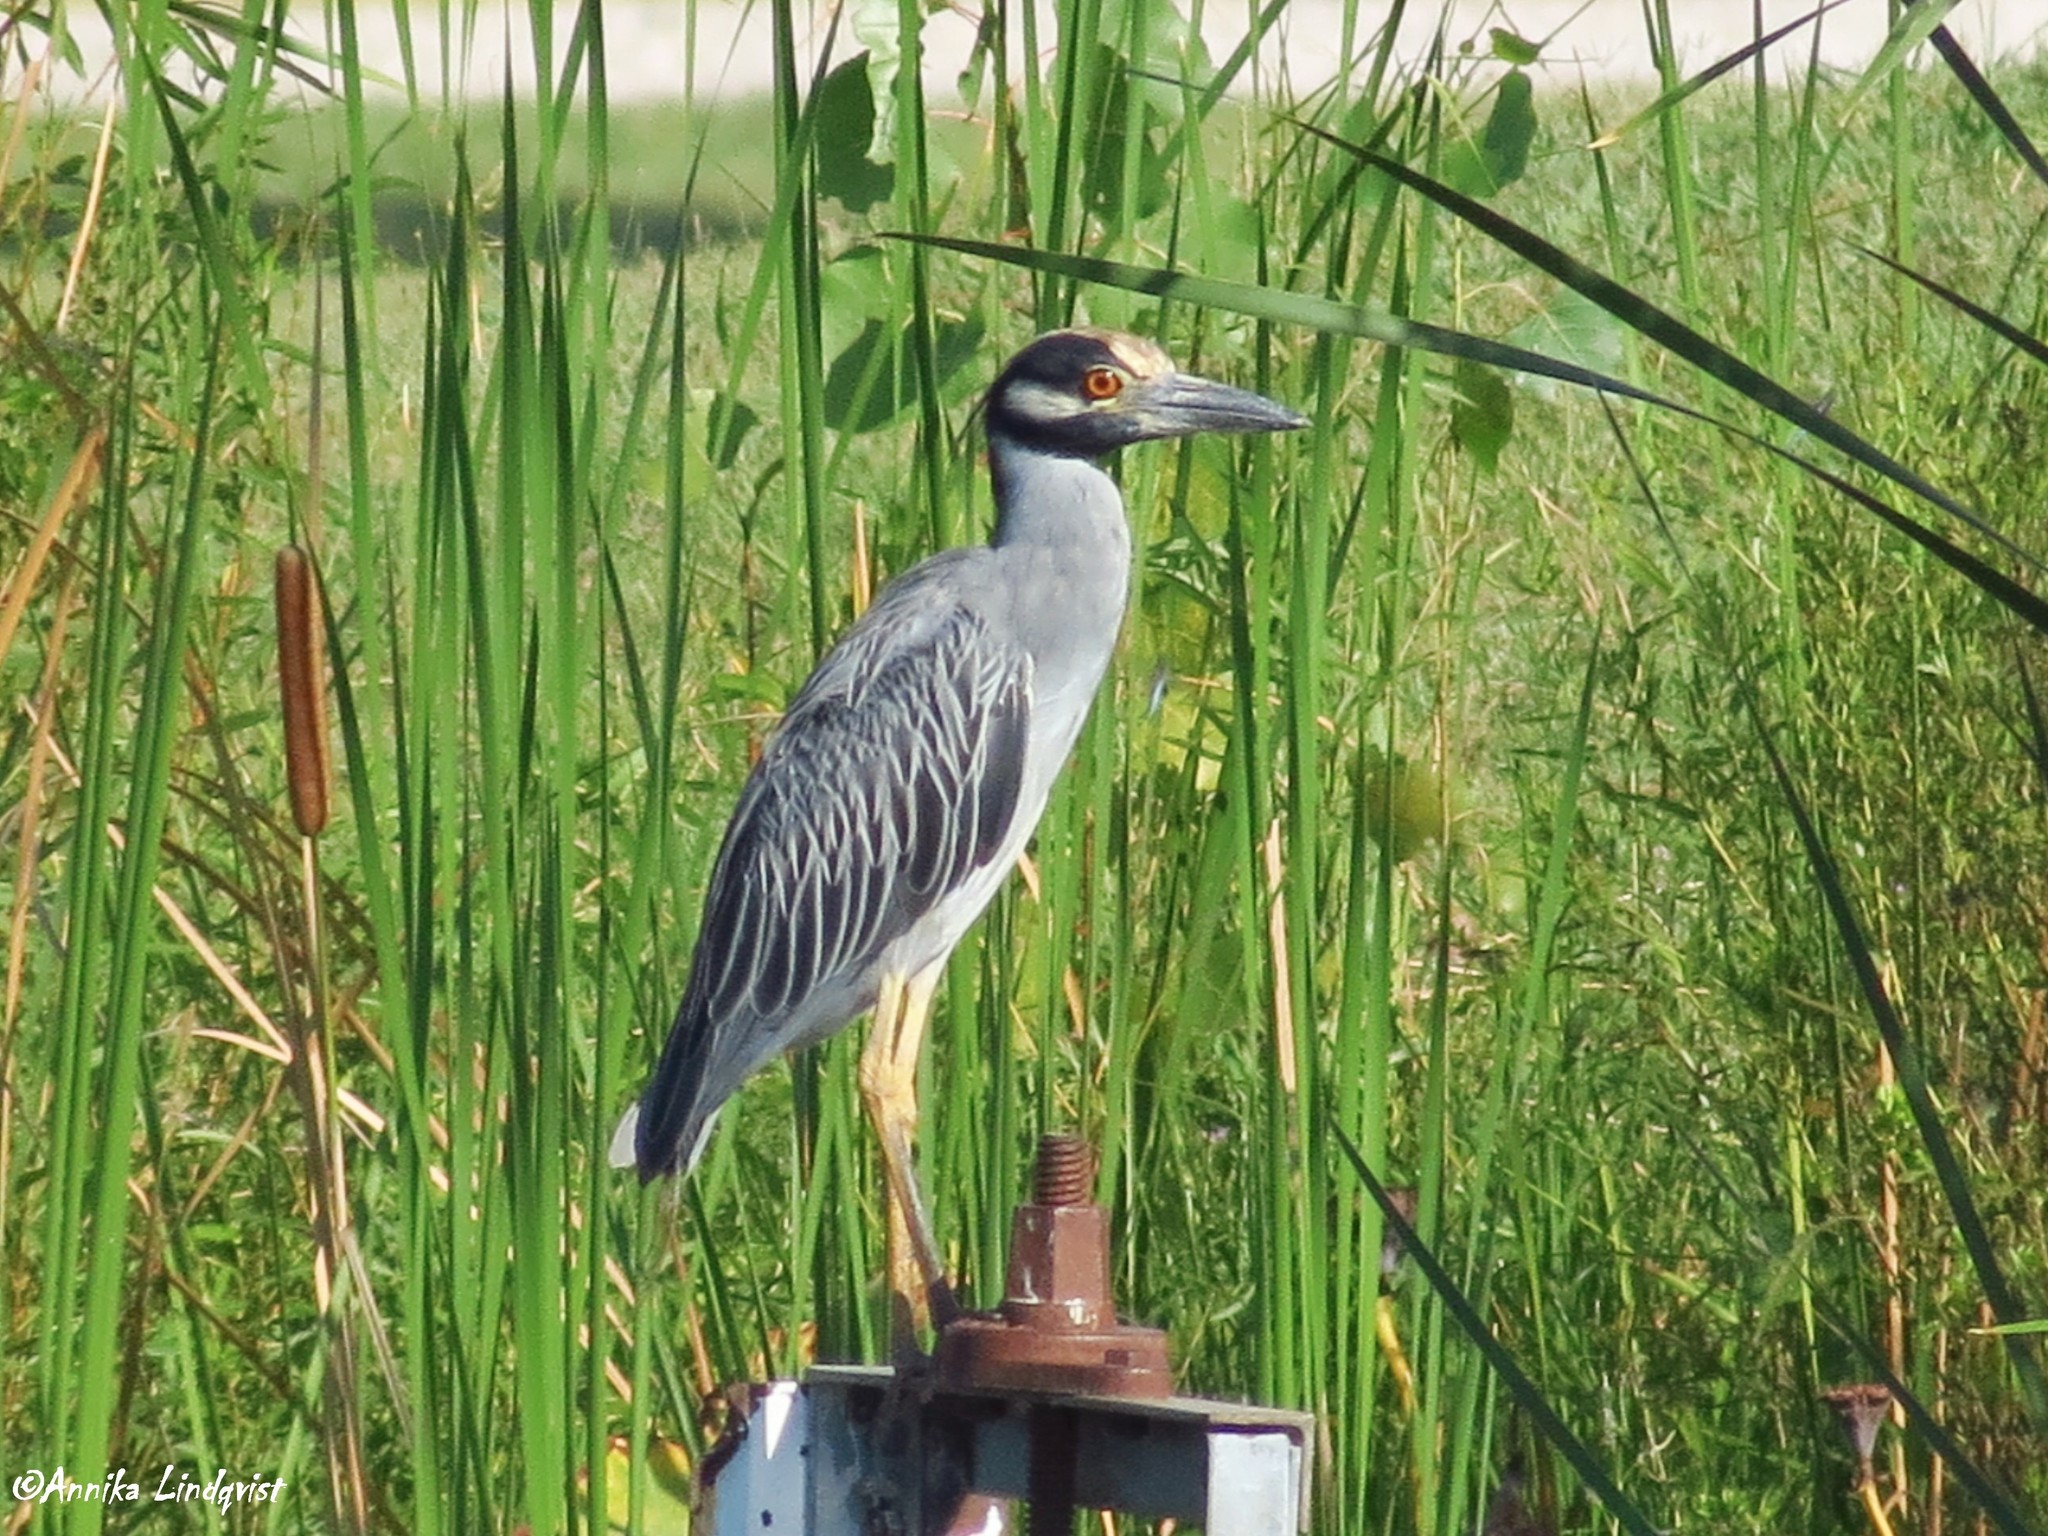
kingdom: Animalia
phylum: Chordata
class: Aves
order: Pelecaniformes
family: Ardeidae
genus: Nyctanassa
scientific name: Nyctanassa violacea
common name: Yellow-crowned night heron
